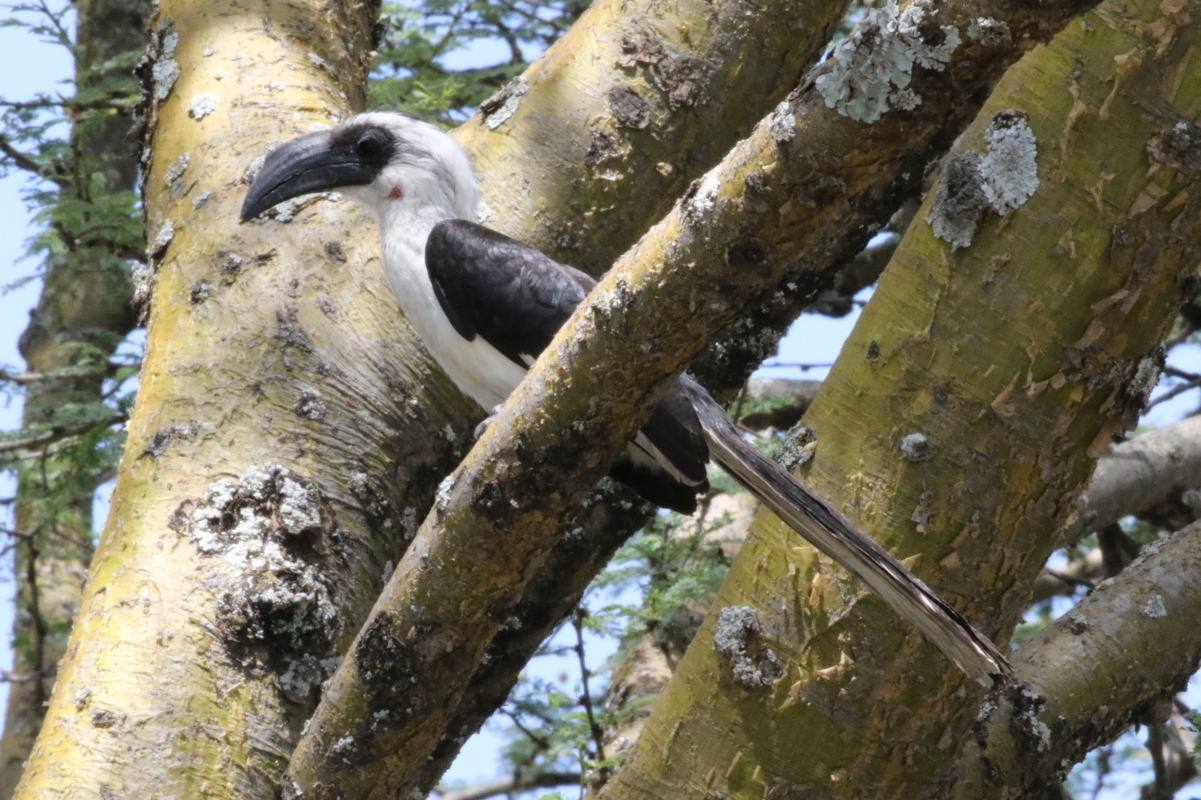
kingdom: Animalia
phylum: Chordata
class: Aves
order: Bucerotiformes
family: Bucerotidae
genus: Tockus
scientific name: Tockus deckeni
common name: Von der decken's hornbill
